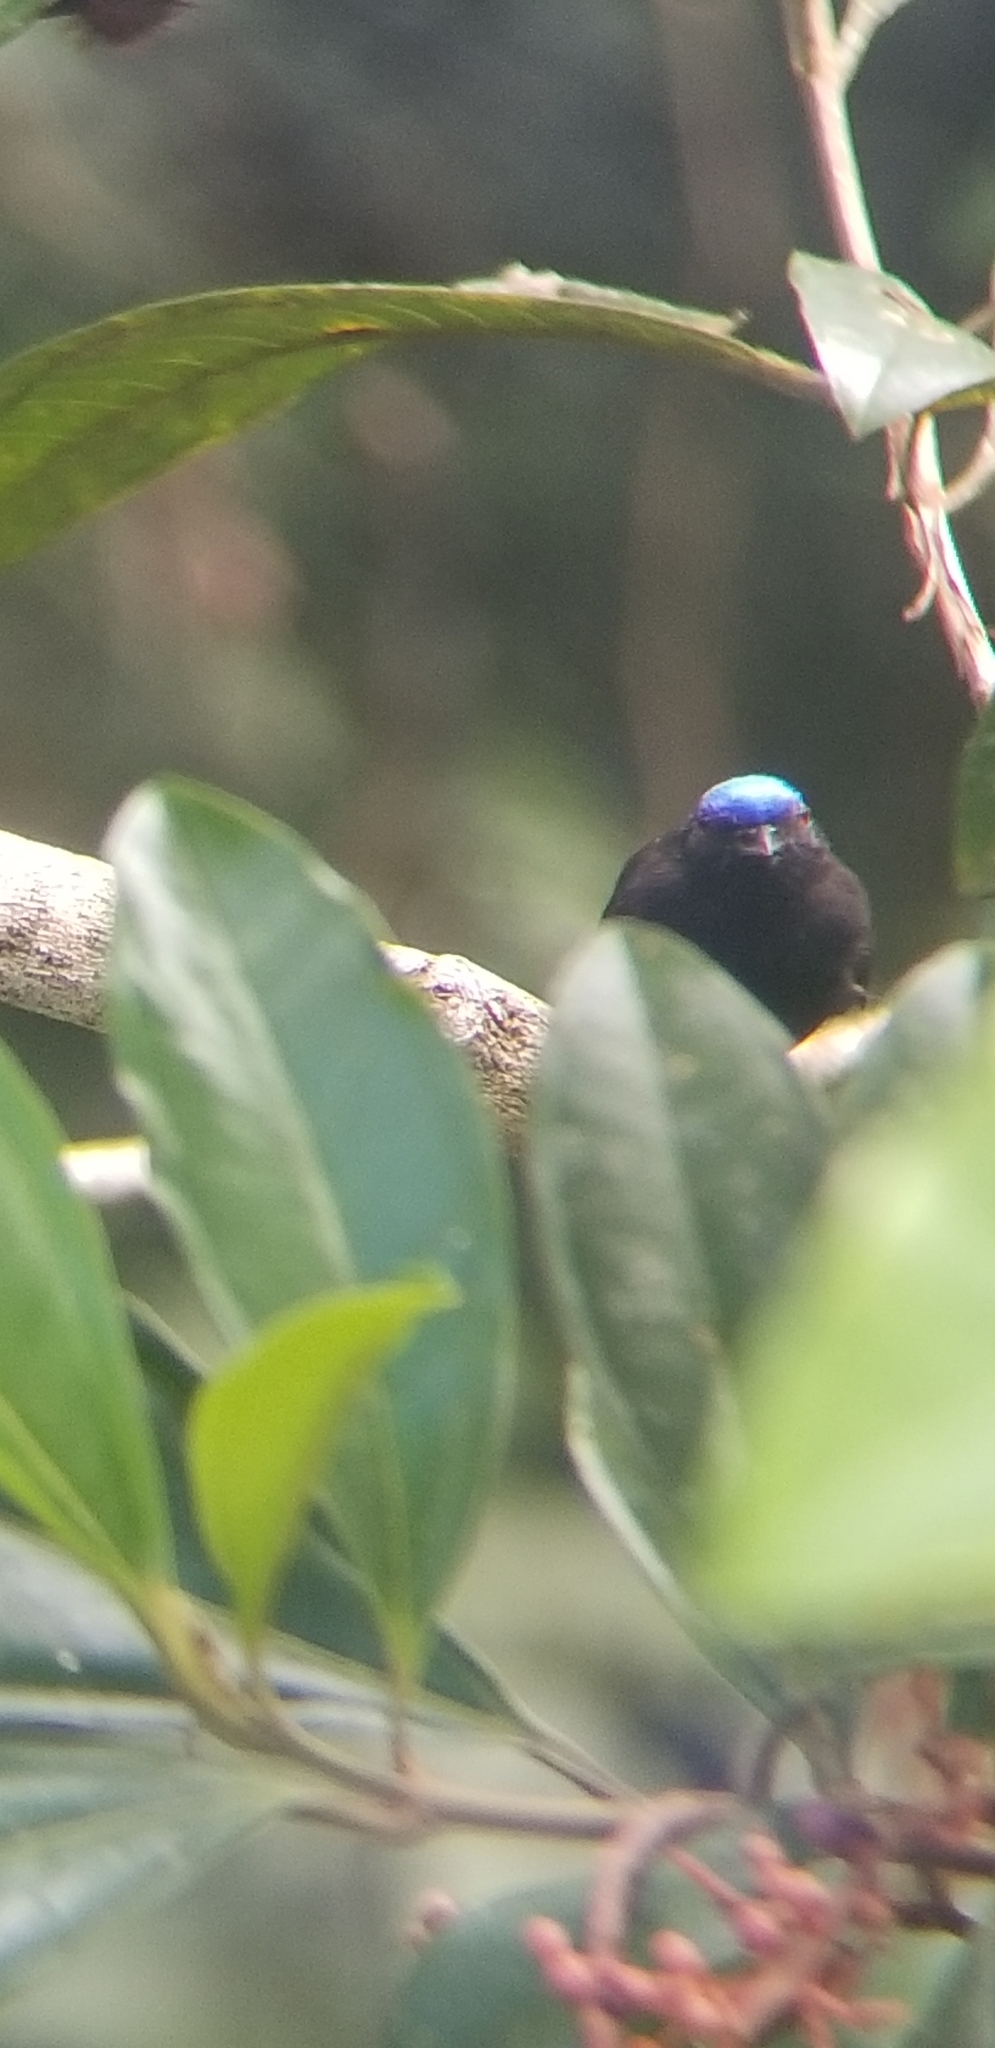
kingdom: Animalia
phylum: Chordata
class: Aves
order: Passeriformes
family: Pipridae
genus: Lepidothrix
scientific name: Lepidothrix coronata
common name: Blue-crowned manakin
